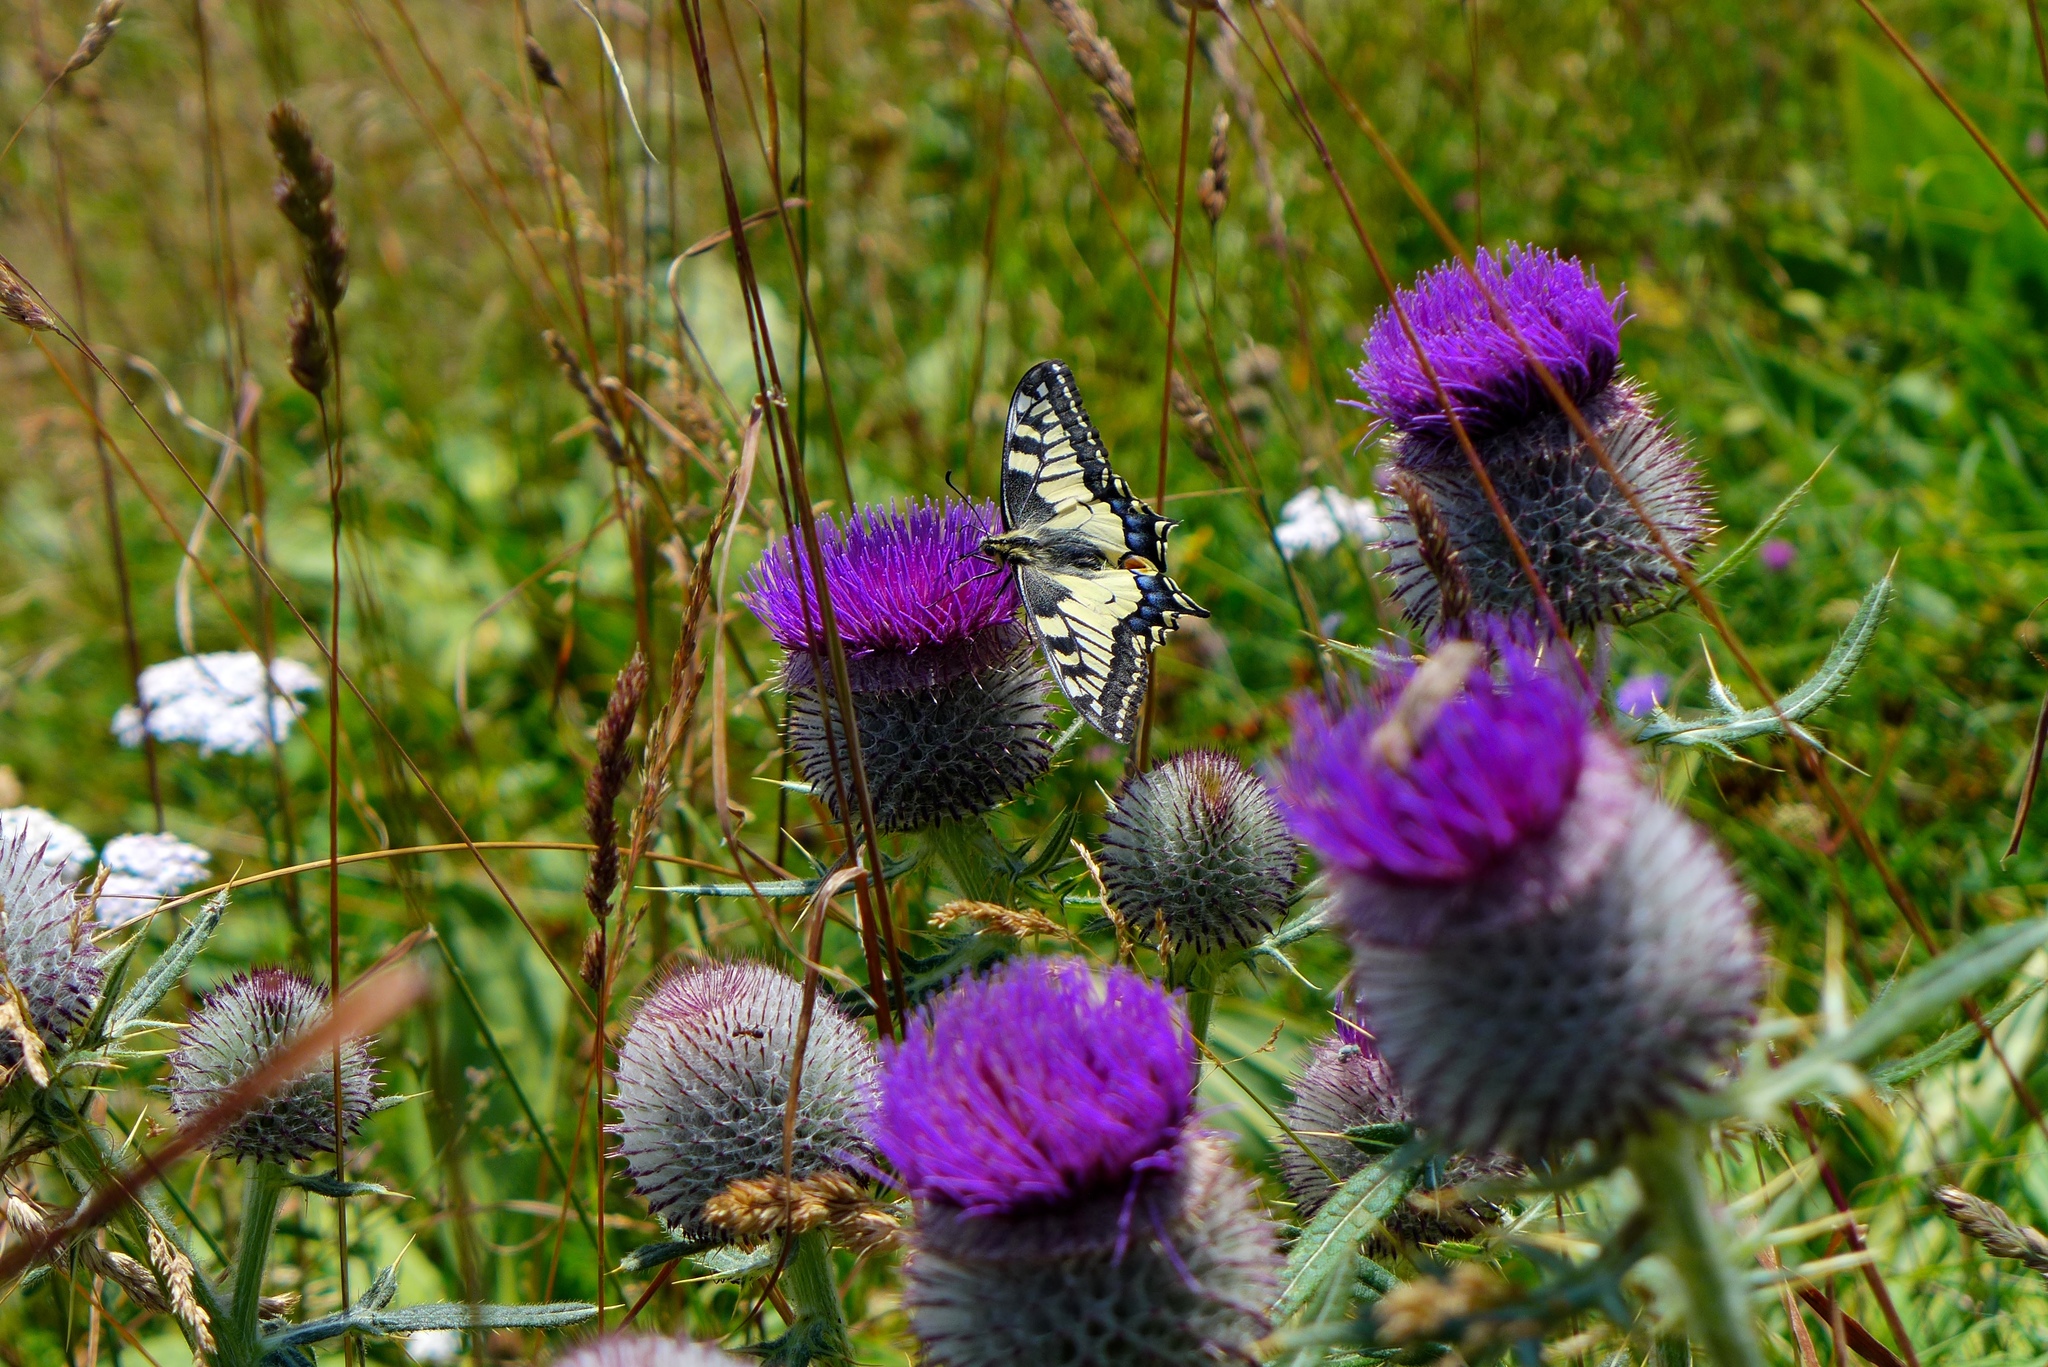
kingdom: Animalia
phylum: Arthropoda
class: Insecta
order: Lepidoptera
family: Papilionidae
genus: Papilio
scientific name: Papilio machaon
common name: Swallowtail
